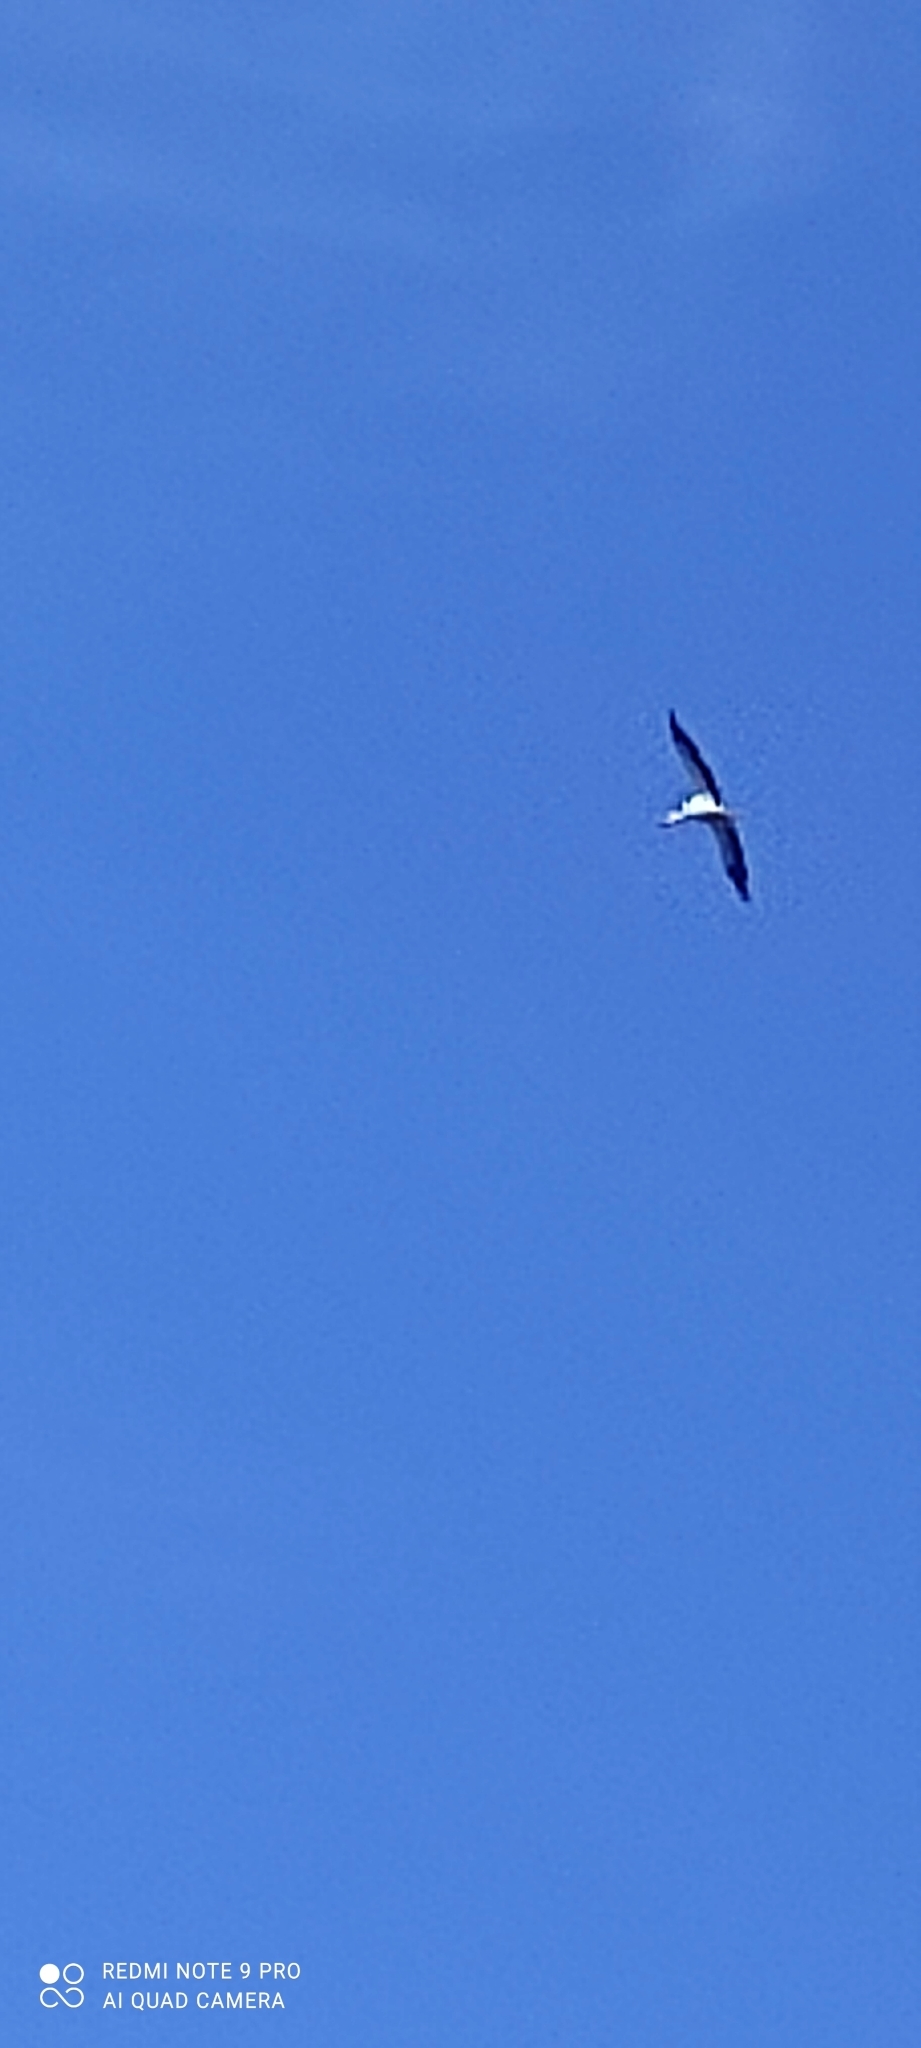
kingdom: Animalia
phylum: Chordata
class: Aves
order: Ciconiiformes
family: Ciconiidae
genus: Ciconia
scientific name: Ciconia ciconia
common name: White stork
